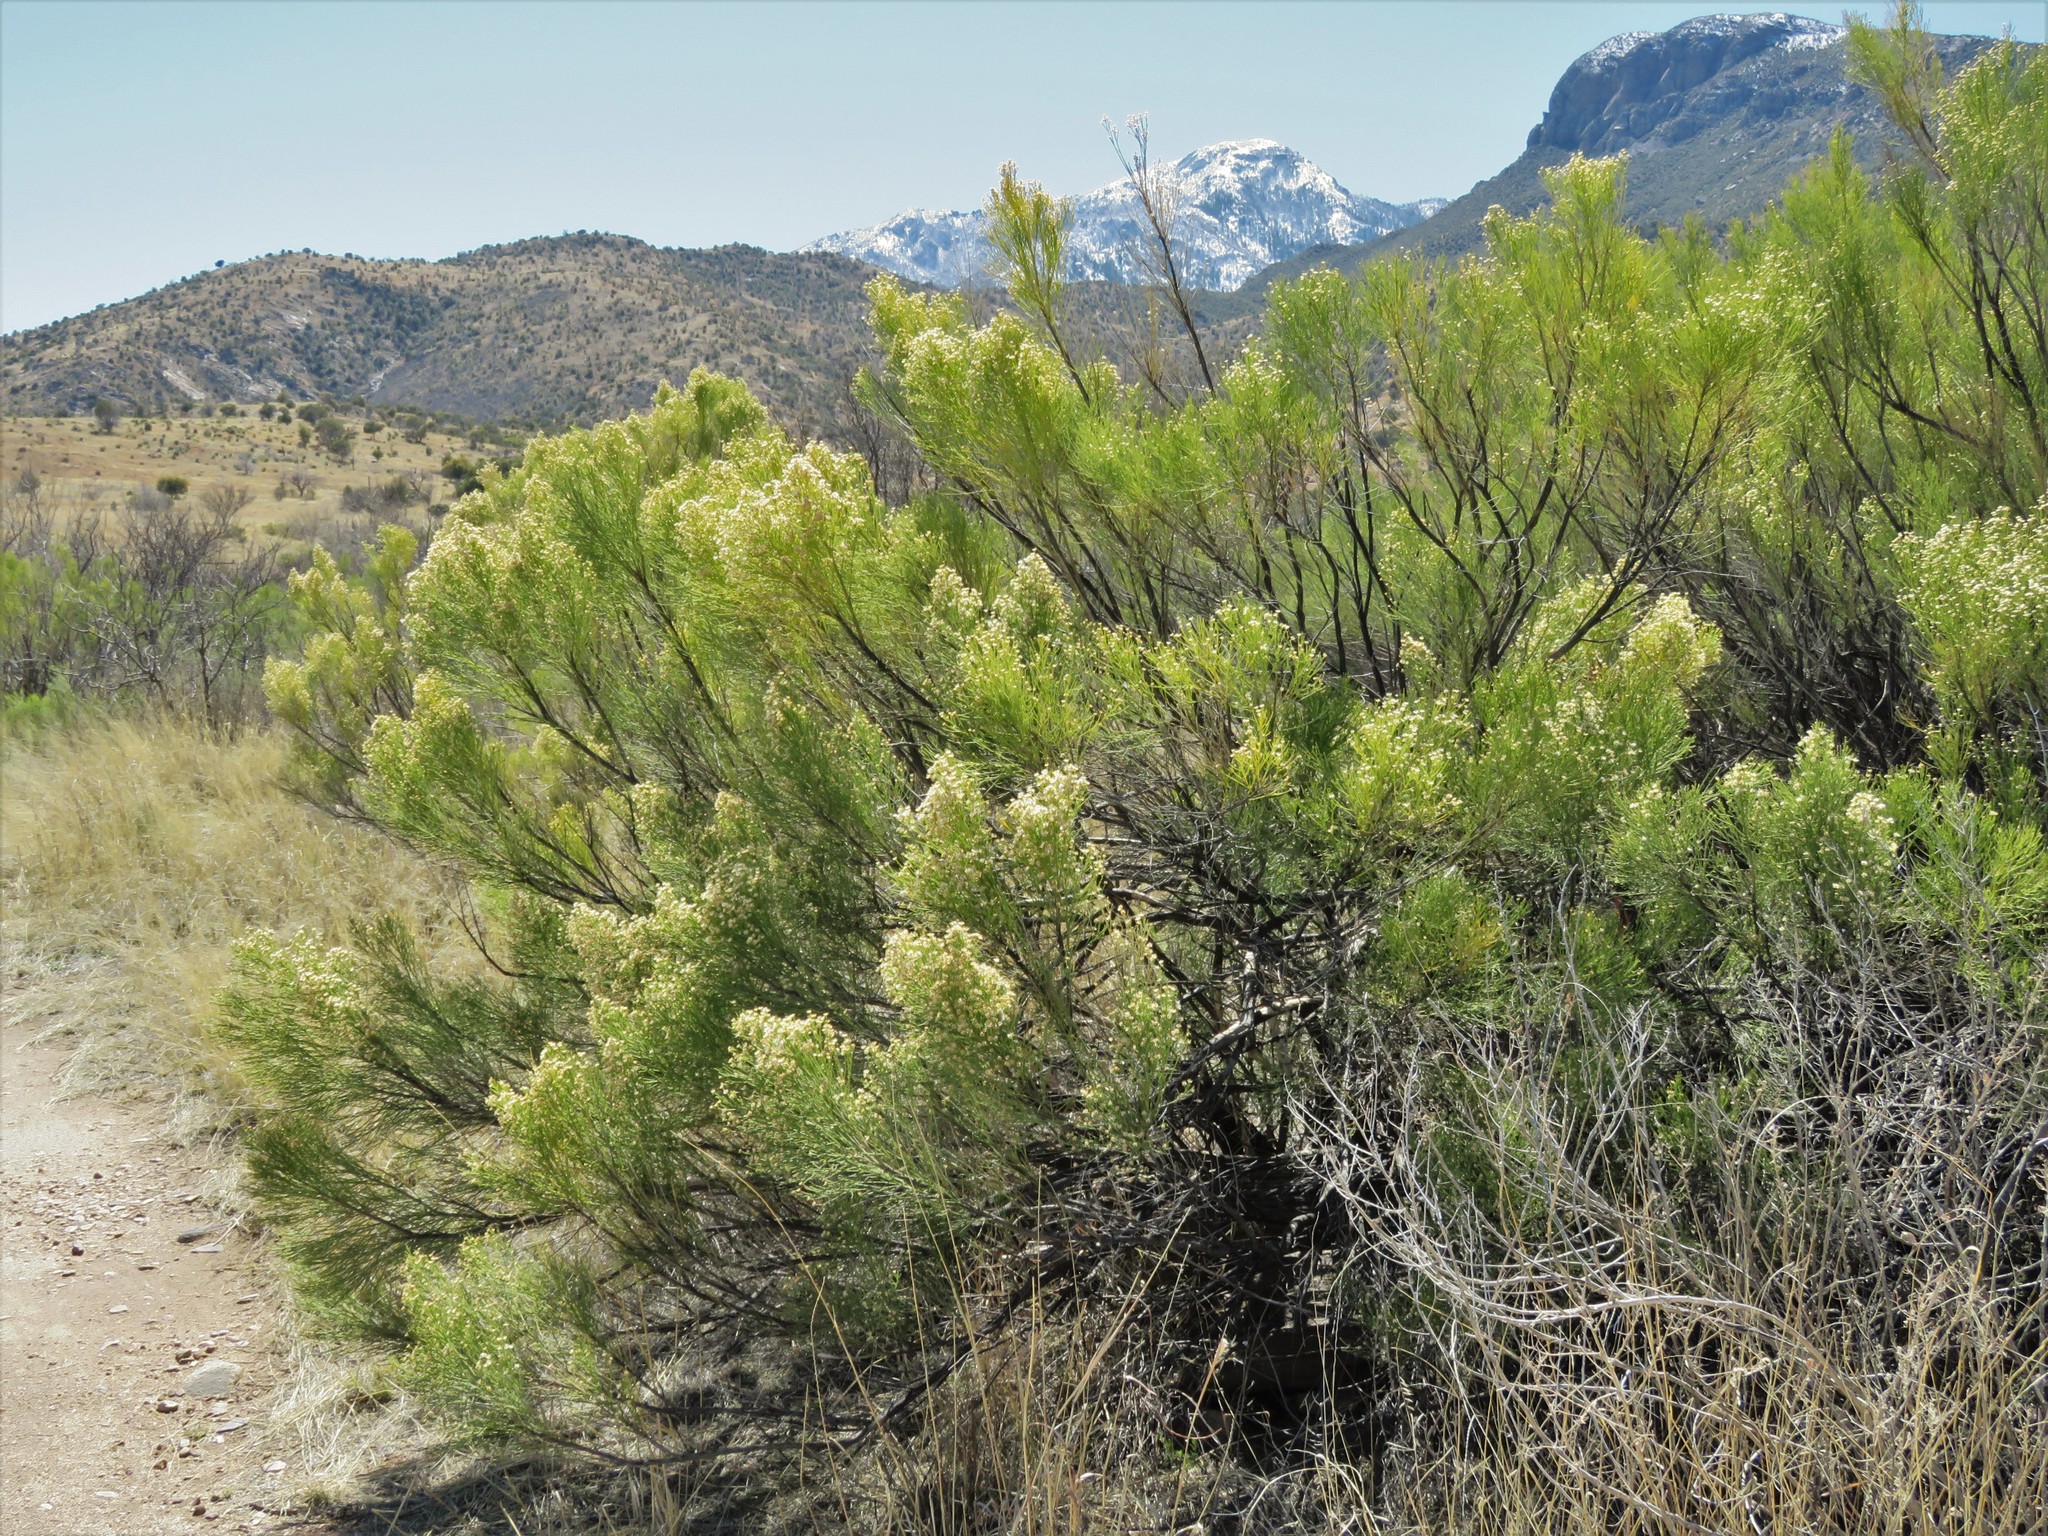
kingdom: Plantae
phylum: Tracheophyta
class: Magnoliopsida
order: Asterales
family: Asteraceae
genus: Baccharis
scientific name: Baccharis sarothroides
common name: Desert-broom
